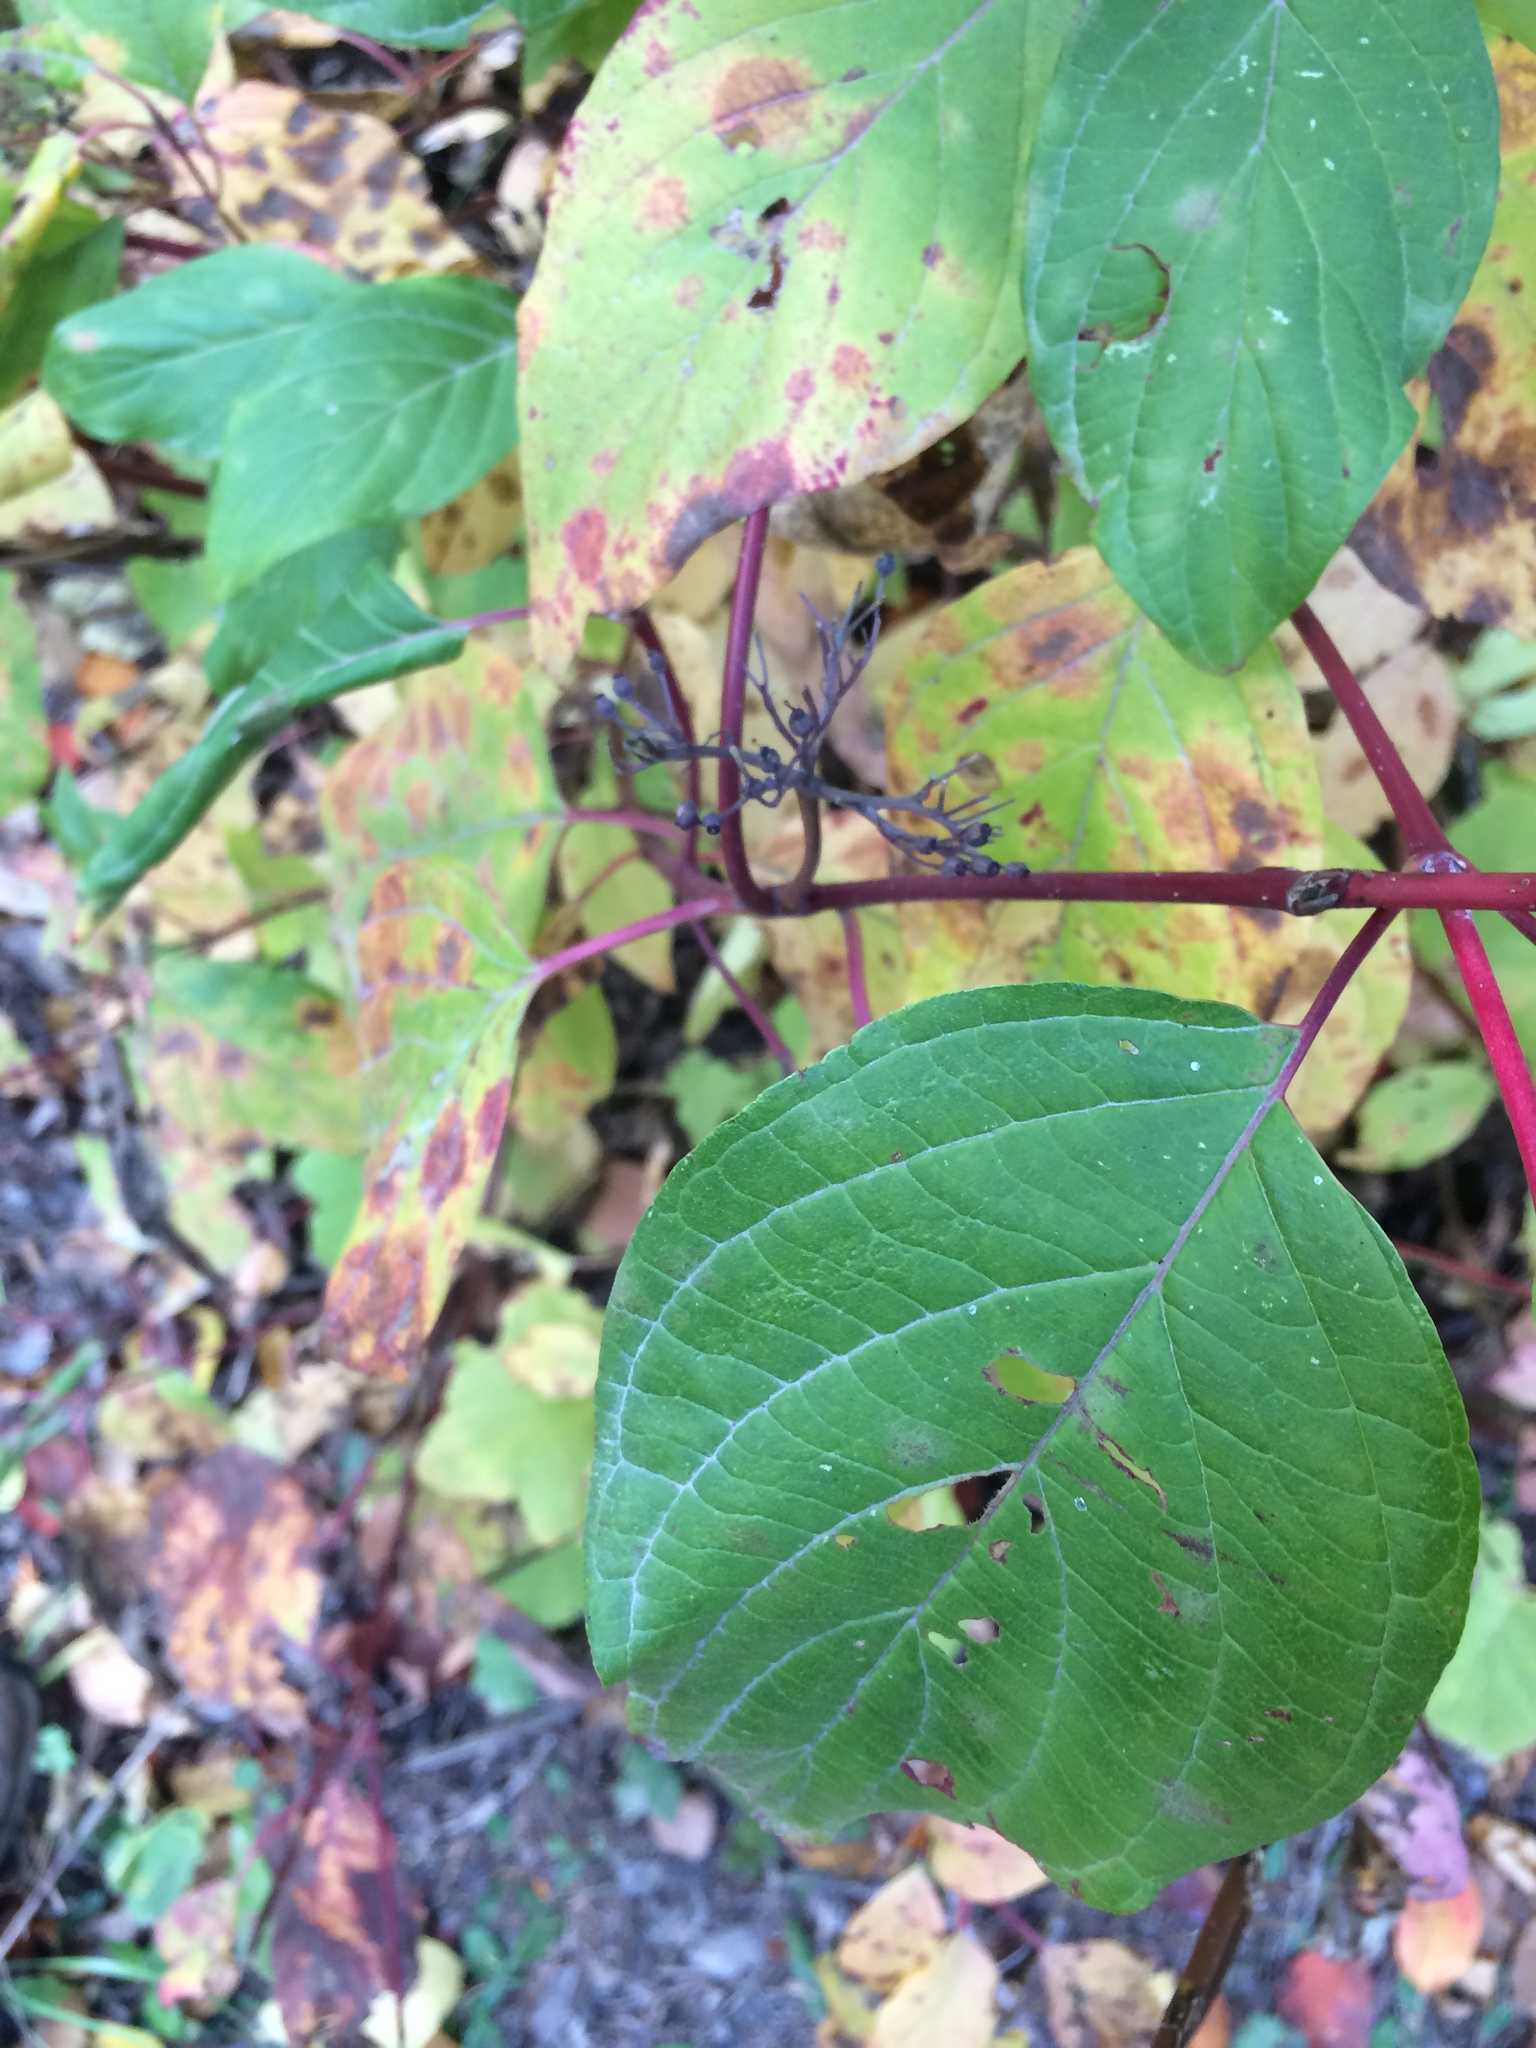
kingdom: Plantae
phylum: Tracheophyta
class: Magnoliopsida
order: Cornales
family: Cornaceae
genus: Cornus
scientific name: Cornus sericea
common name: Red-osier dogwood
